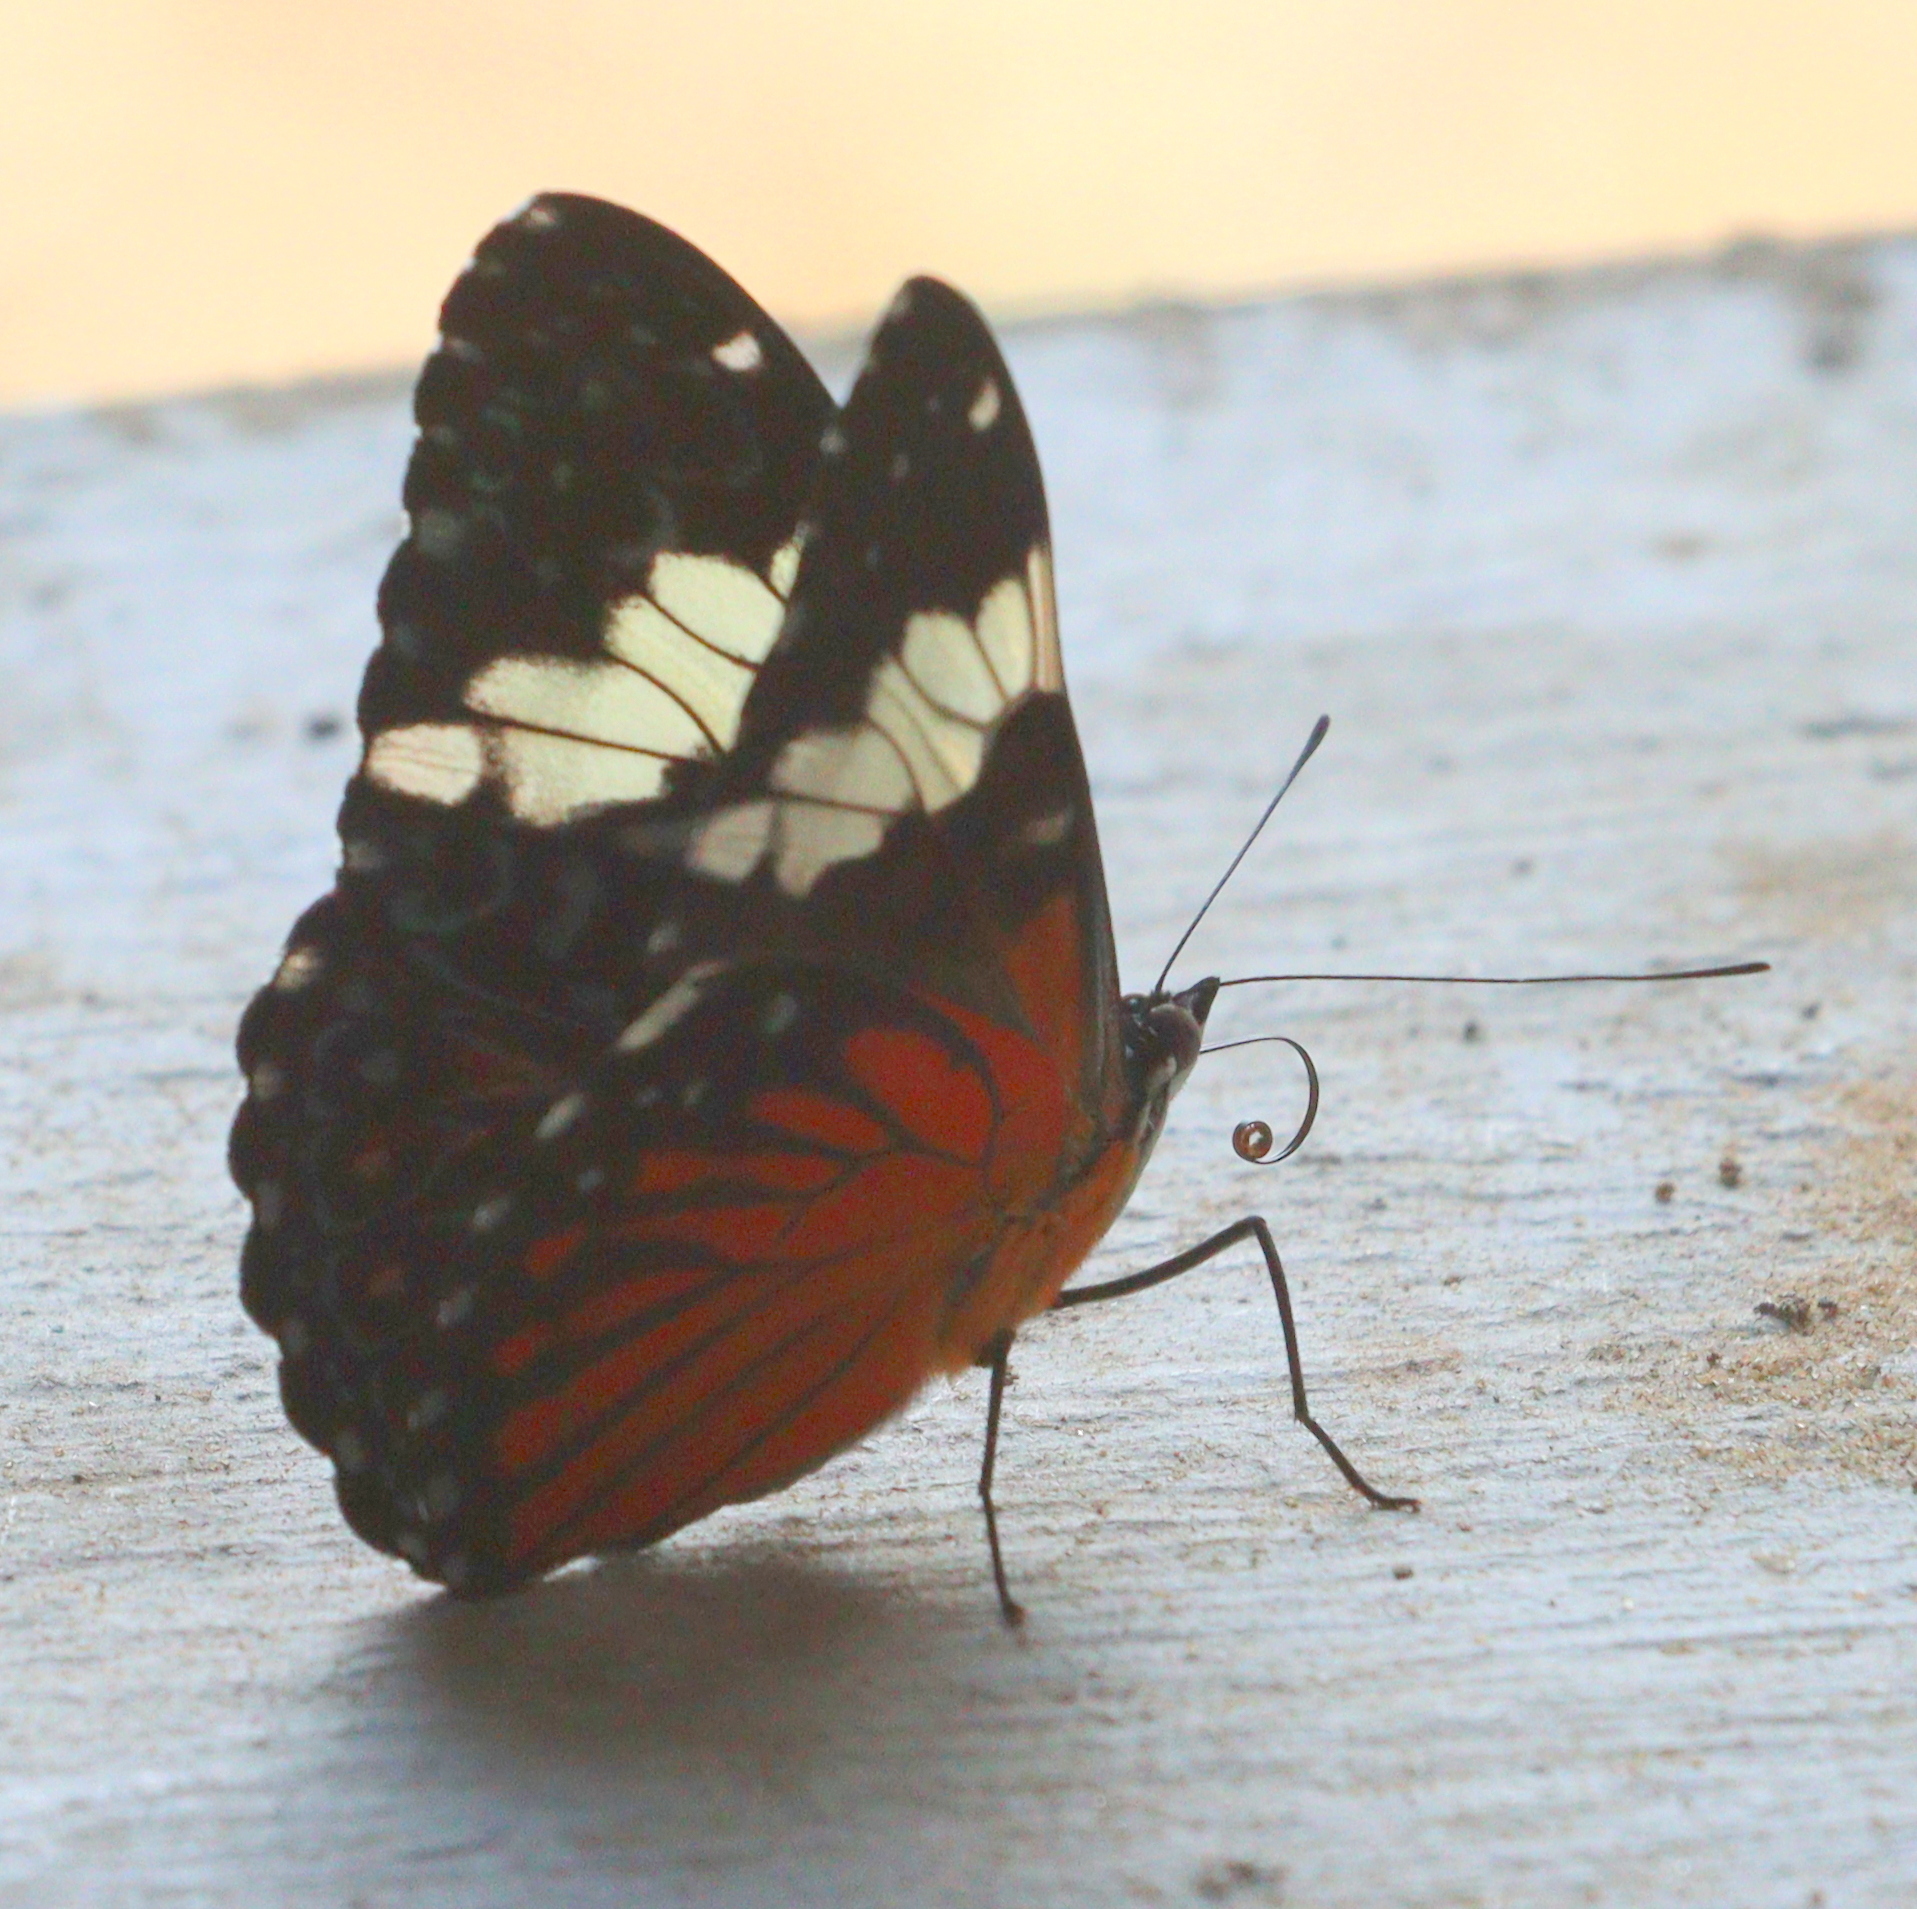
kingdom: Animalia
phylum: Arthropoda
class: Insecta
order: Lepidoptera
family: Nymphalidae
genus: Hamadryas
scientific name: Hamadryas amphinome
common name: Red cracker
